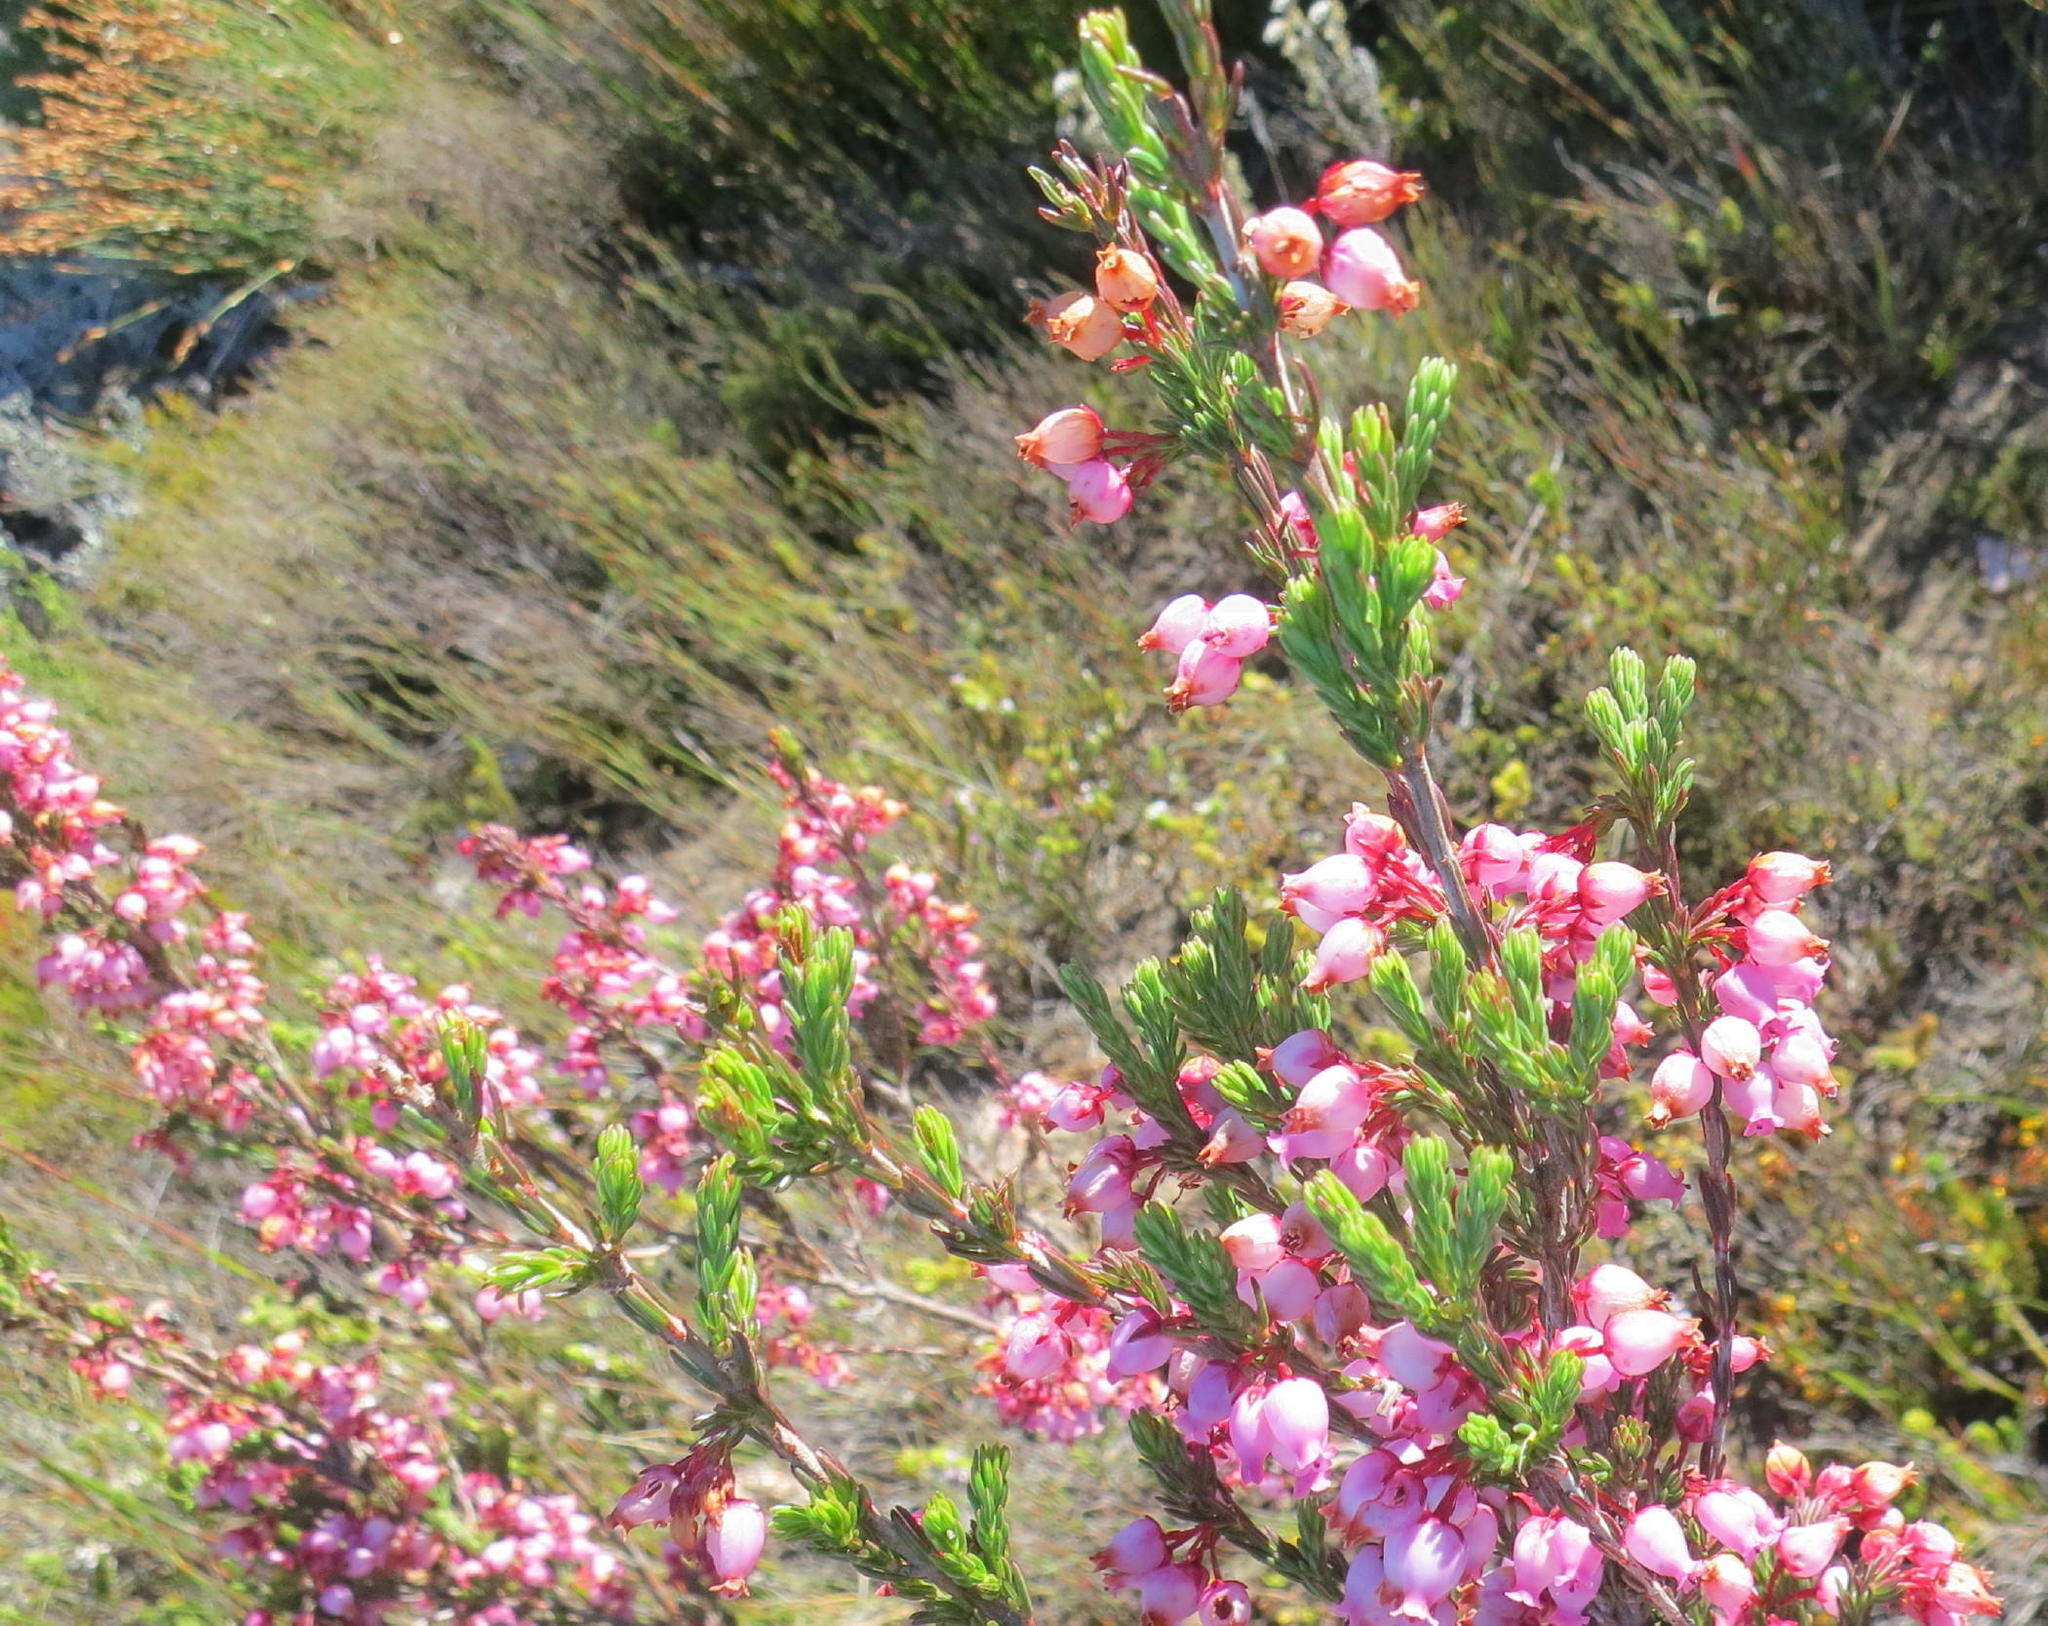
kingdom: Plantae
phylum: Tracheophyta
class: Magnoliopsida
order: Ericales
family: Ericaceae
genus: Erica
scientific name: Erica toringbergensis
